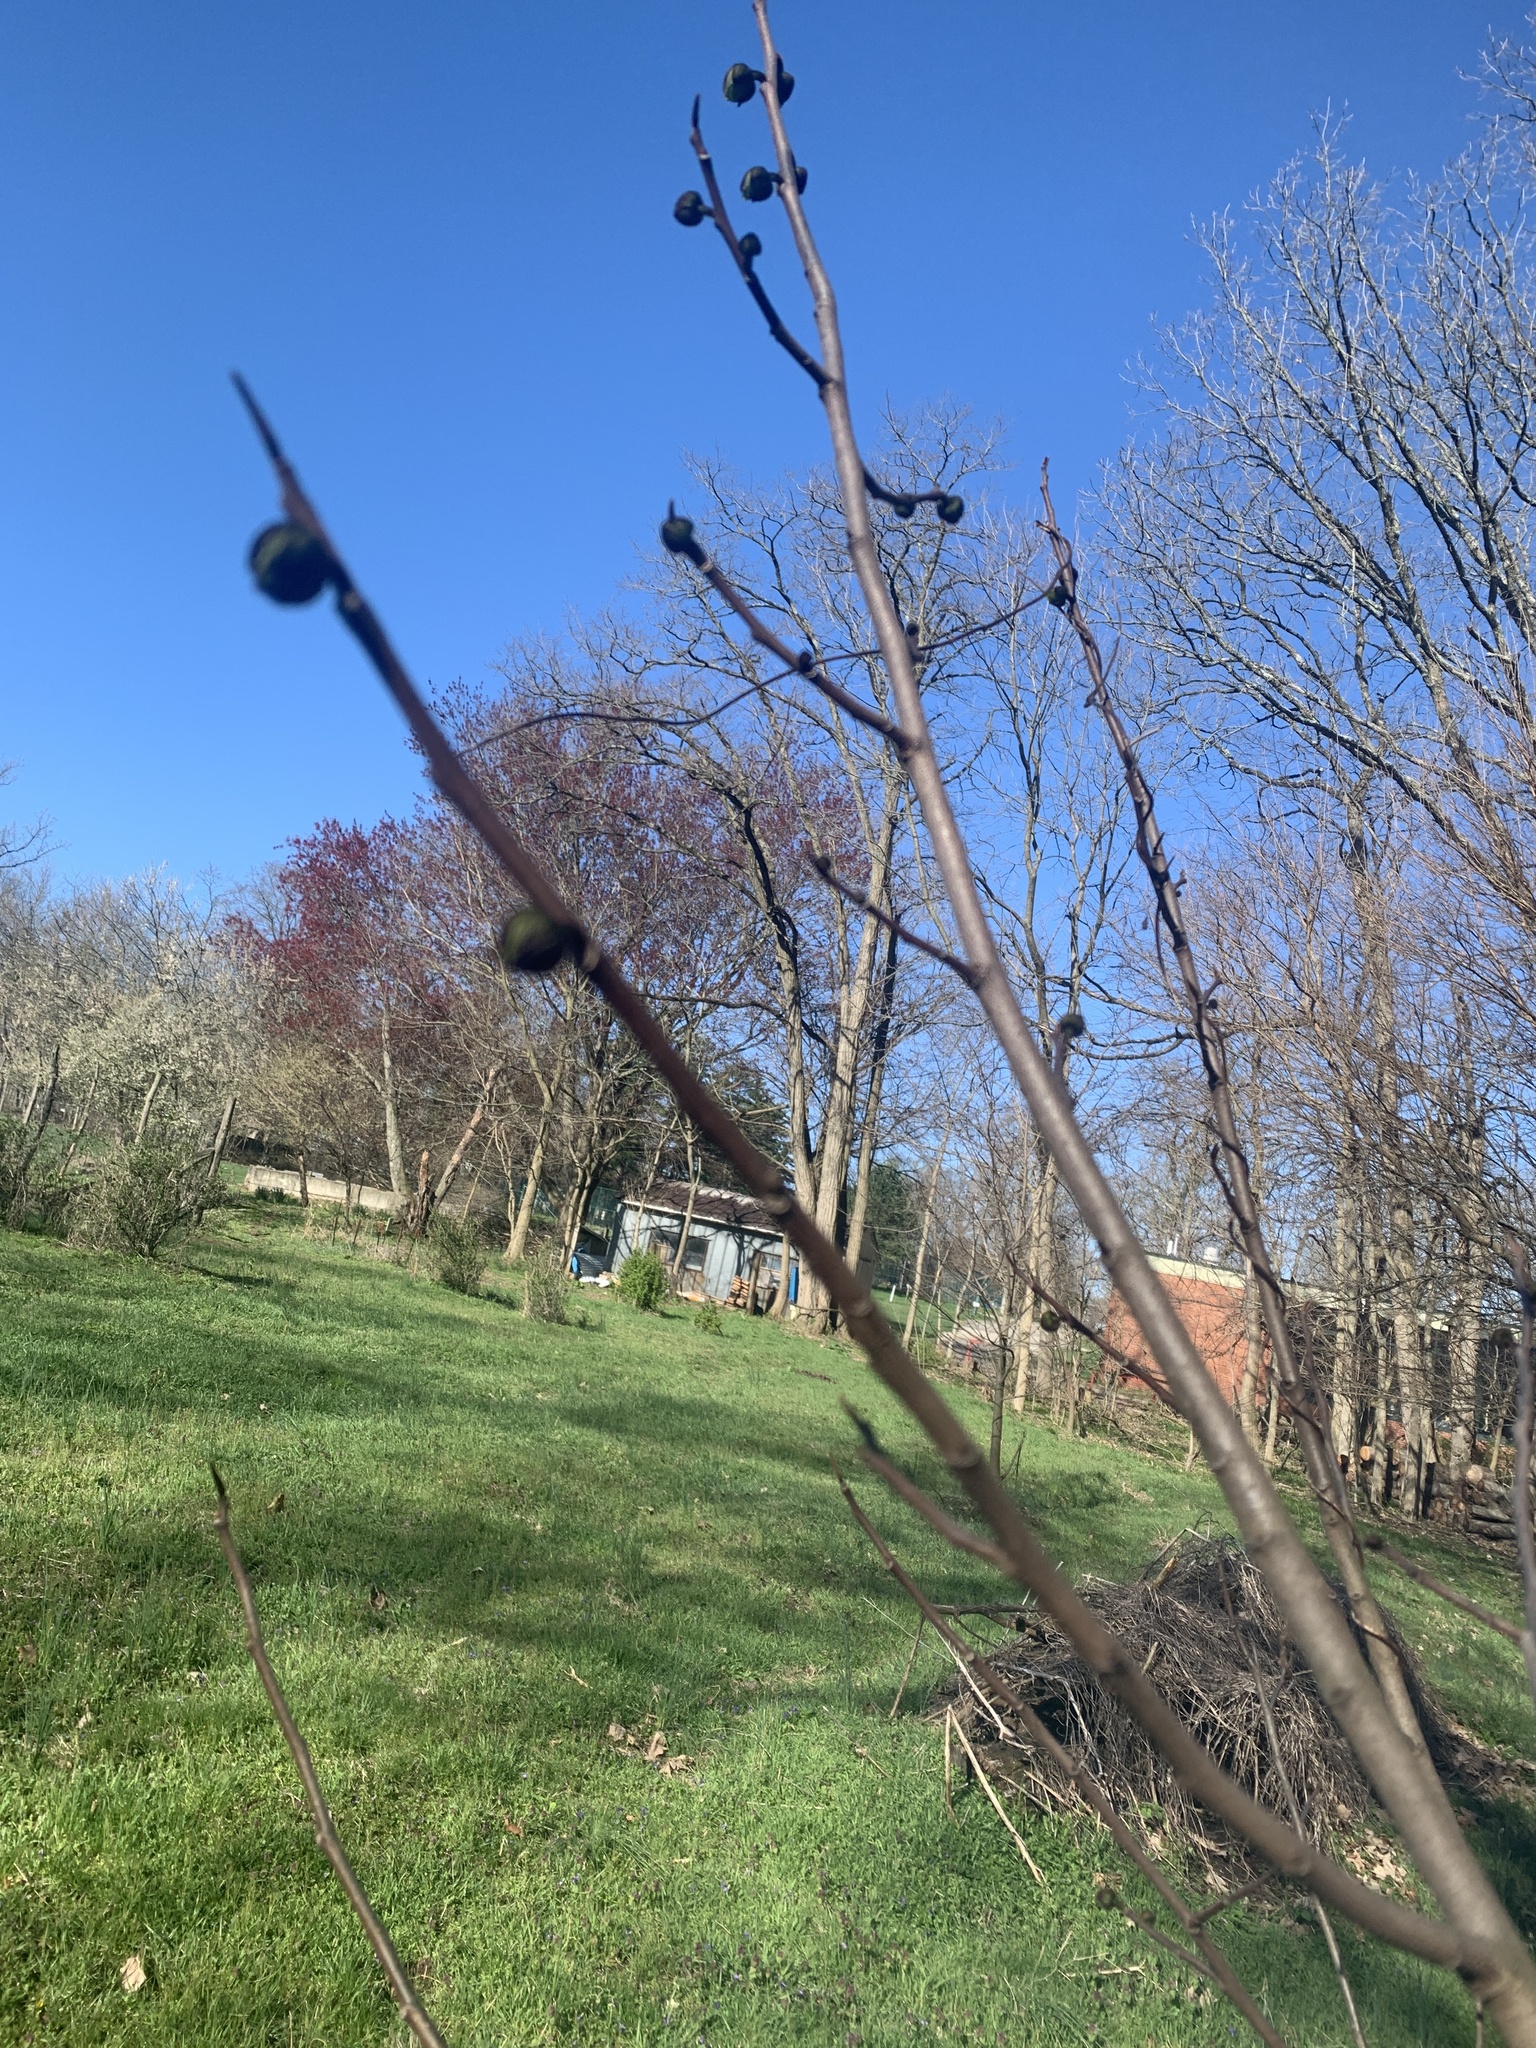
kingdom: Plantae
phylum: Tracheophyta
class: Magnoliopsida
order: Magnoliales
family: Annonaceae
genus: Asimina
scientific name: Asimina triloba
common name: Dog-banana
